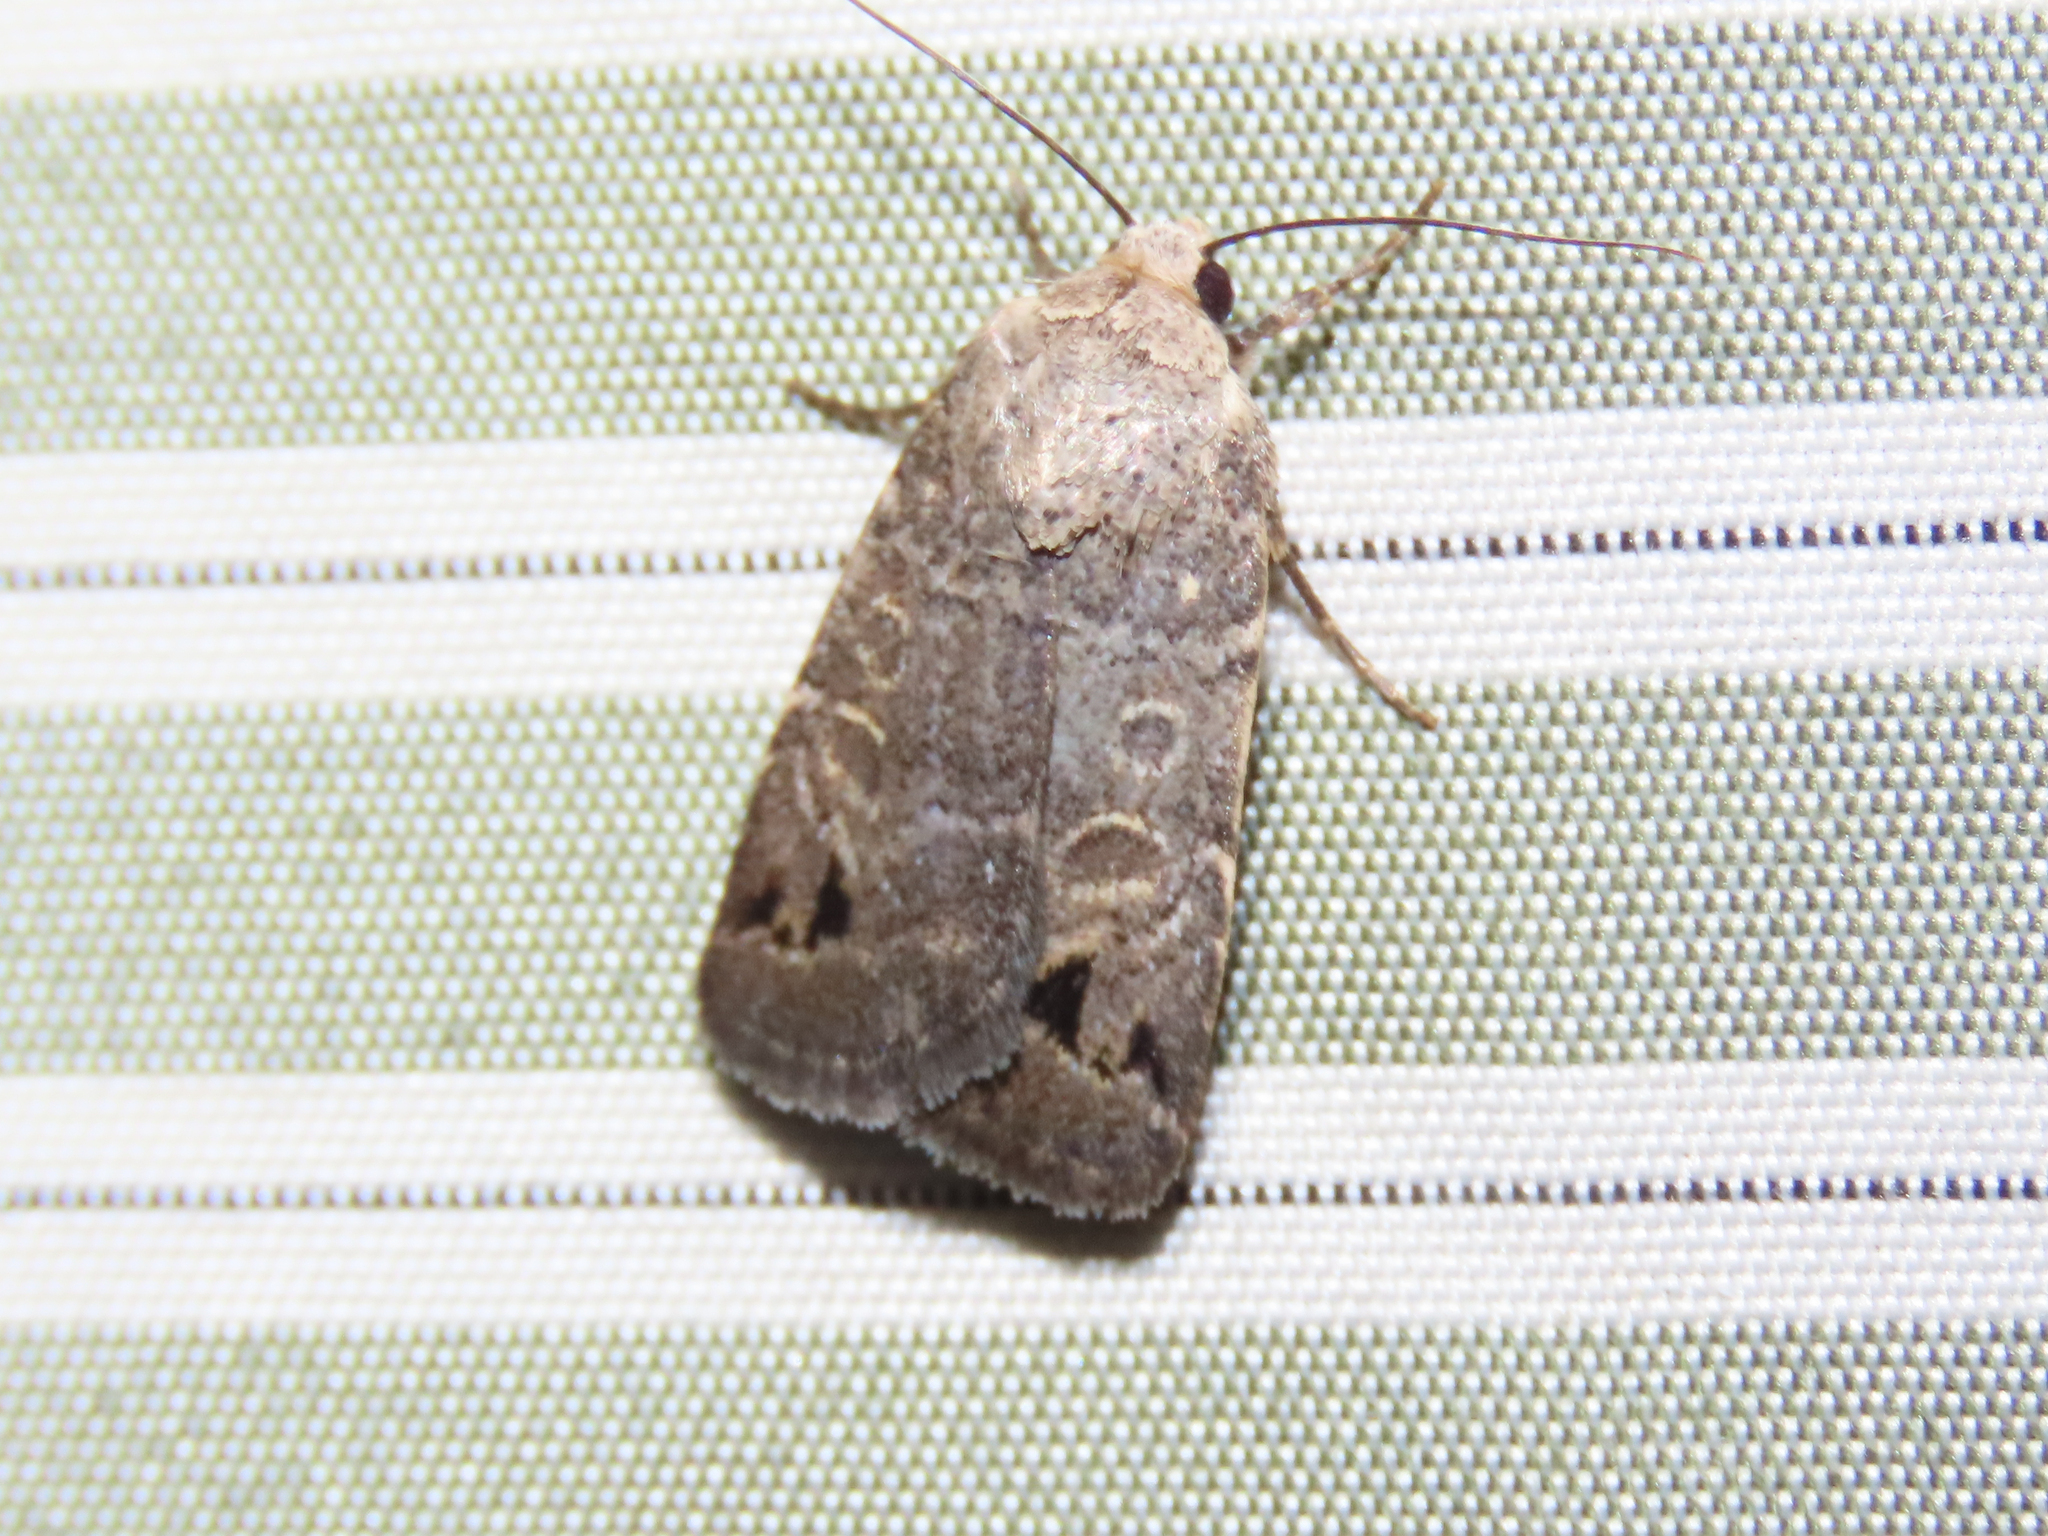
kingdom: Animalia
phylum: Arthropoda
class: Insecta
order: Lepidoptera
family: Noctuidae
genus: Anorthodes
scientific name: Anorthodes triquetra
